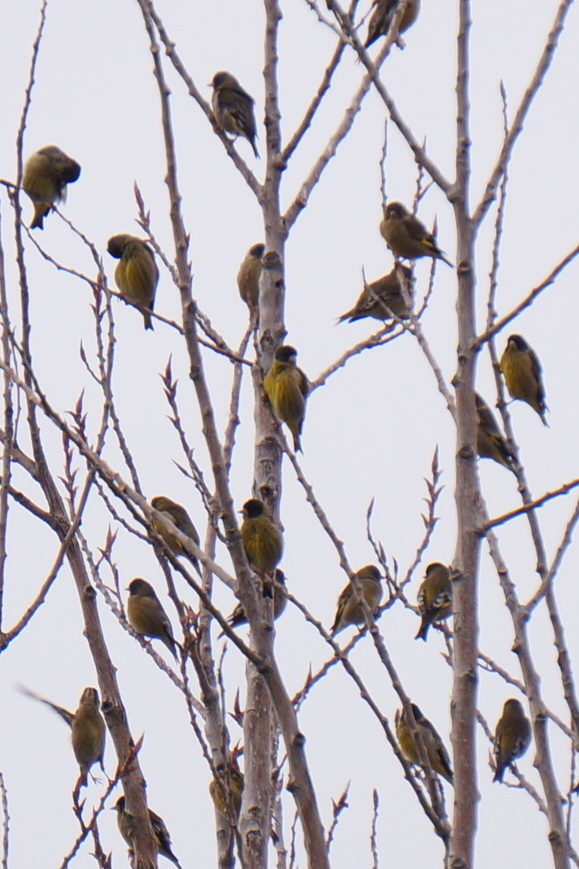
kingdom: Animalia
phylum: Chordata
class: Aves
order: Passeriformes
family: Fringillidae
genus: Chloris
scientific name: Chloris ambigua
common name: Black-headed greenfinch
